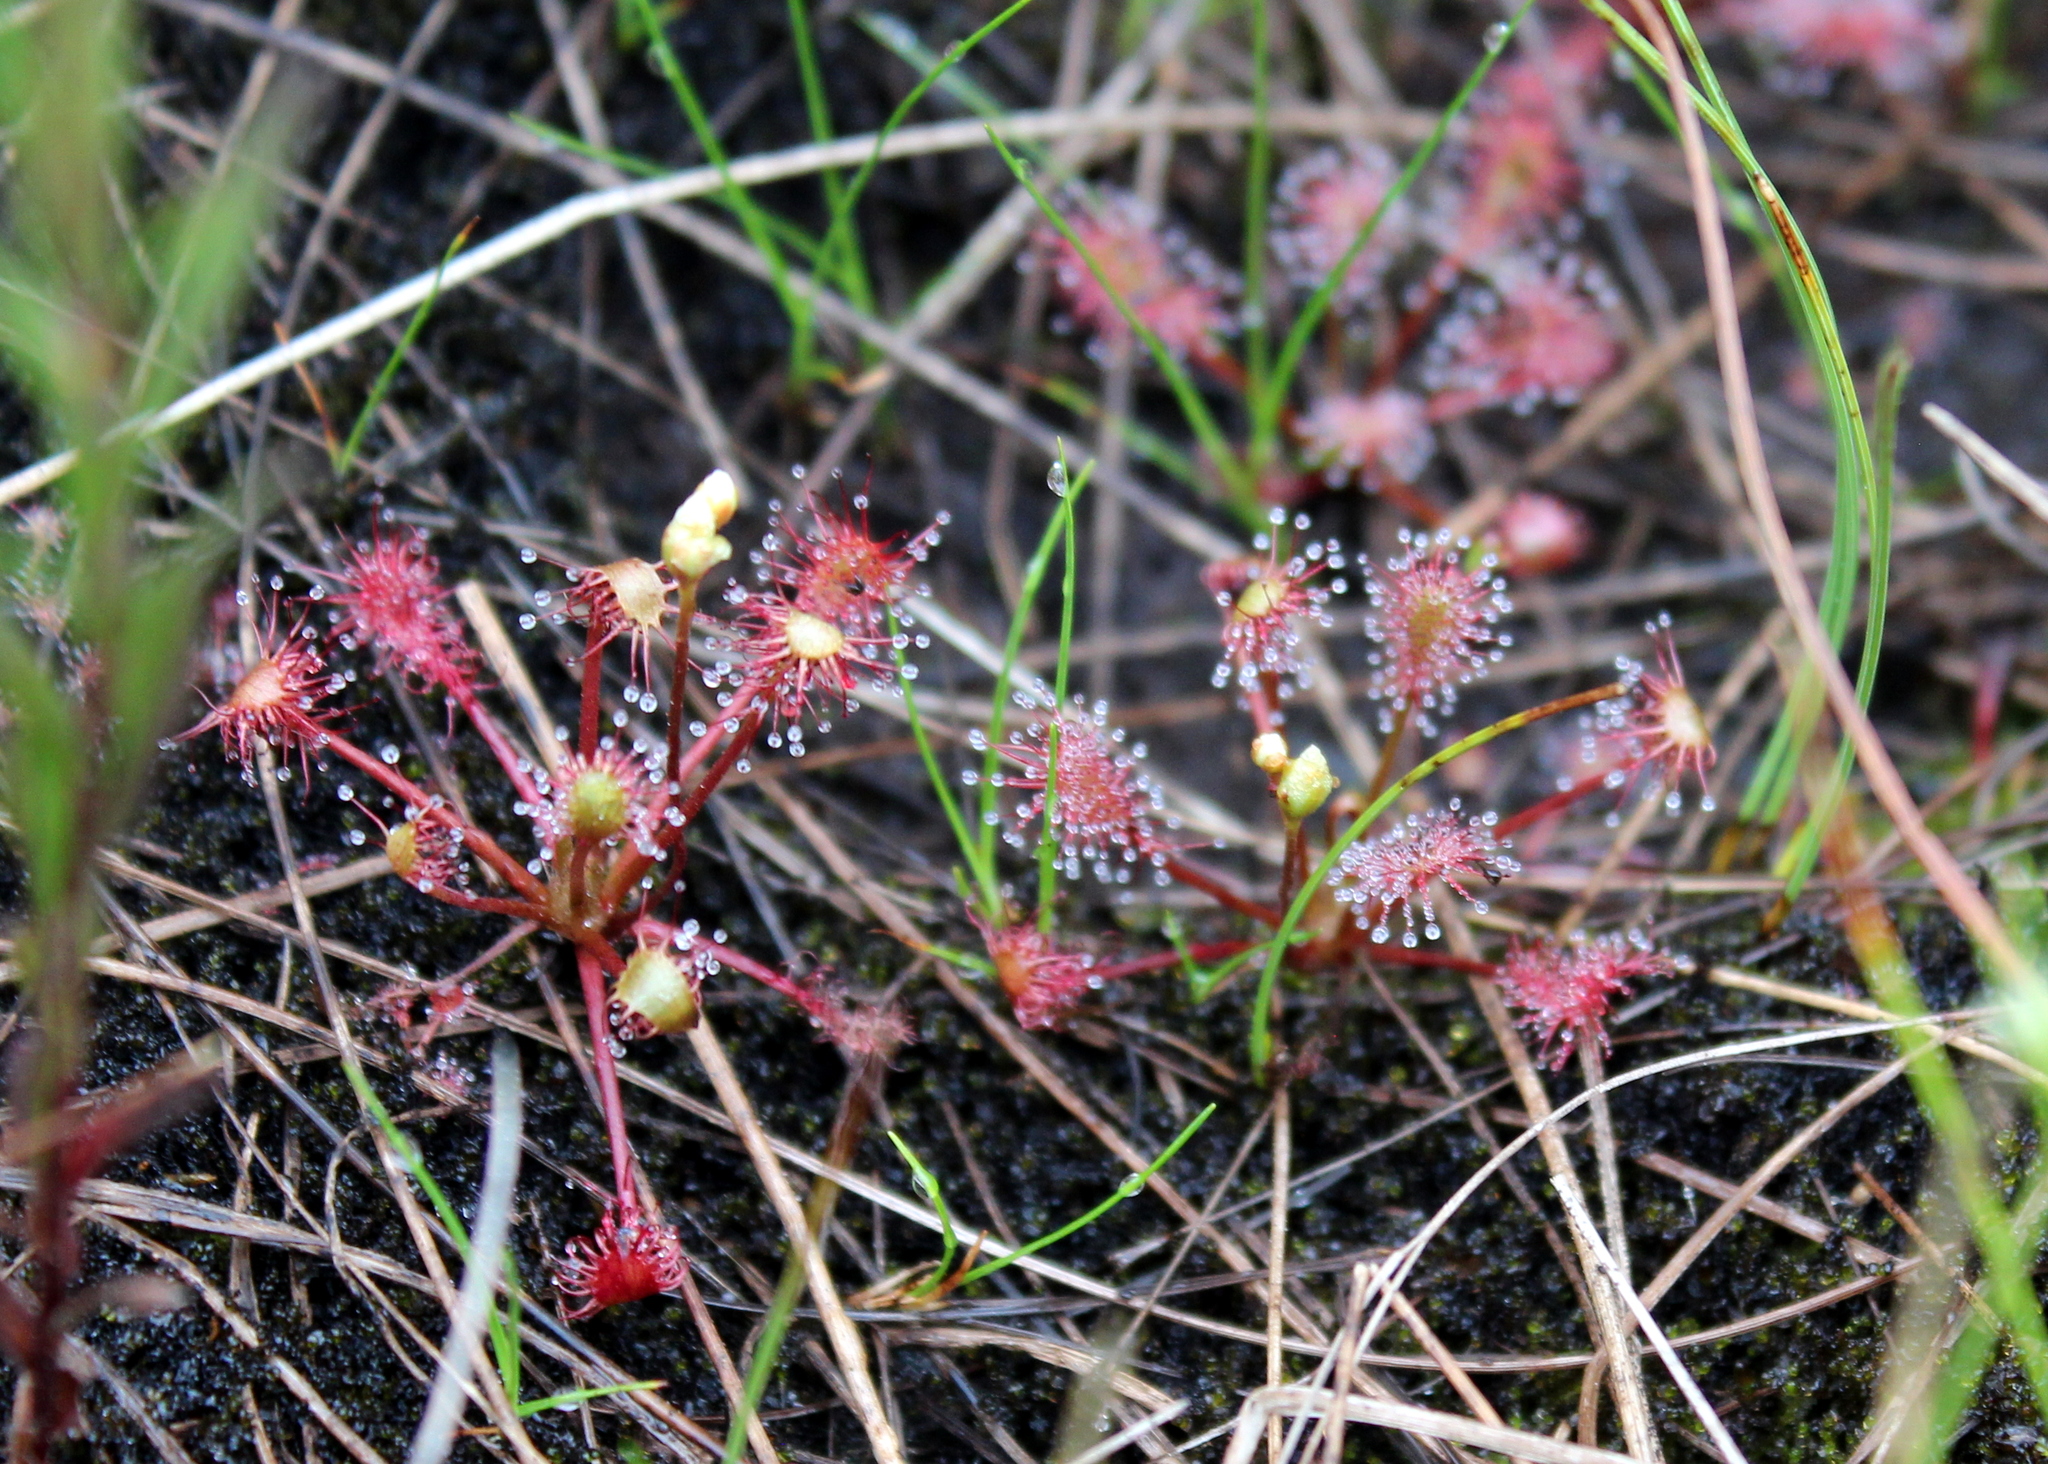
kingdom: Plantae
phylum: Tracheophyta
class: Magnoliopsida
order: Caryophyllales
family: Droseraceae
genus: Drosera
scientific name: Drosera intermedia
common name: Oblong-leaved sundew
